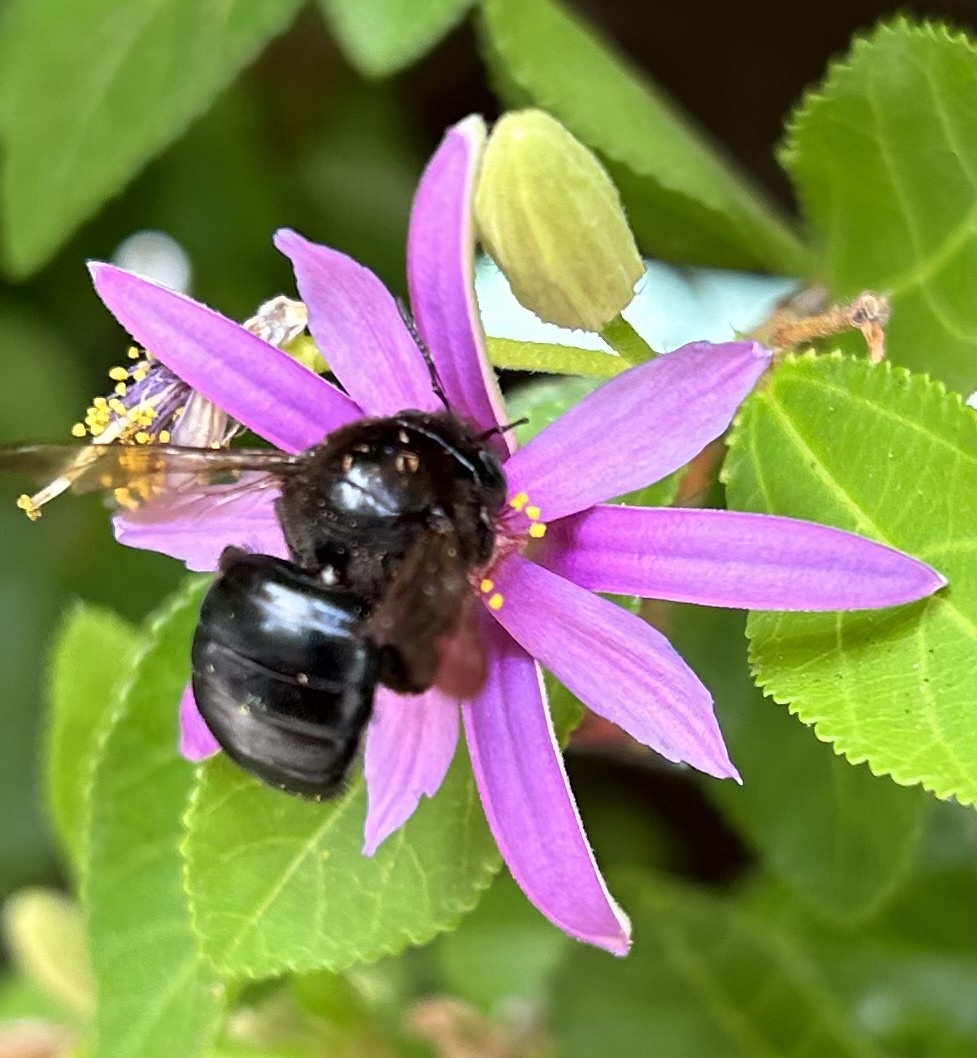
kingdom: Animalia
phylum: Arthropoda
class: Insecta
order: Hymenoptera
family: Apidae
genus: Xylocopa
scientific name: Xylocopa tabaniformis
